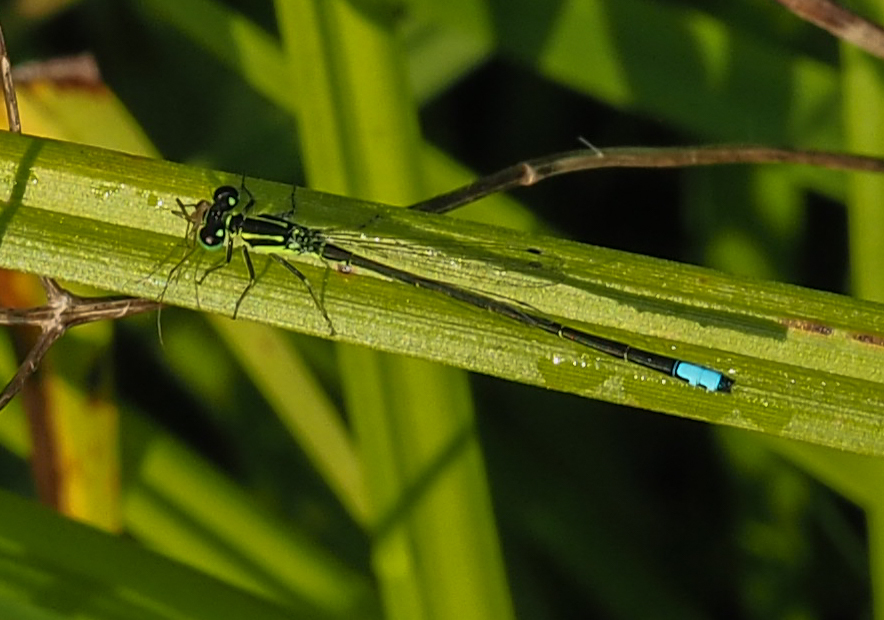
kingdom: Animalia
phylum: Arthropoda
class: Insecta
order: Odonata
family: Coenagrionidae
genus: Ischnura
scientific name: Ischnura verticalis
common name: Eastern forktail
